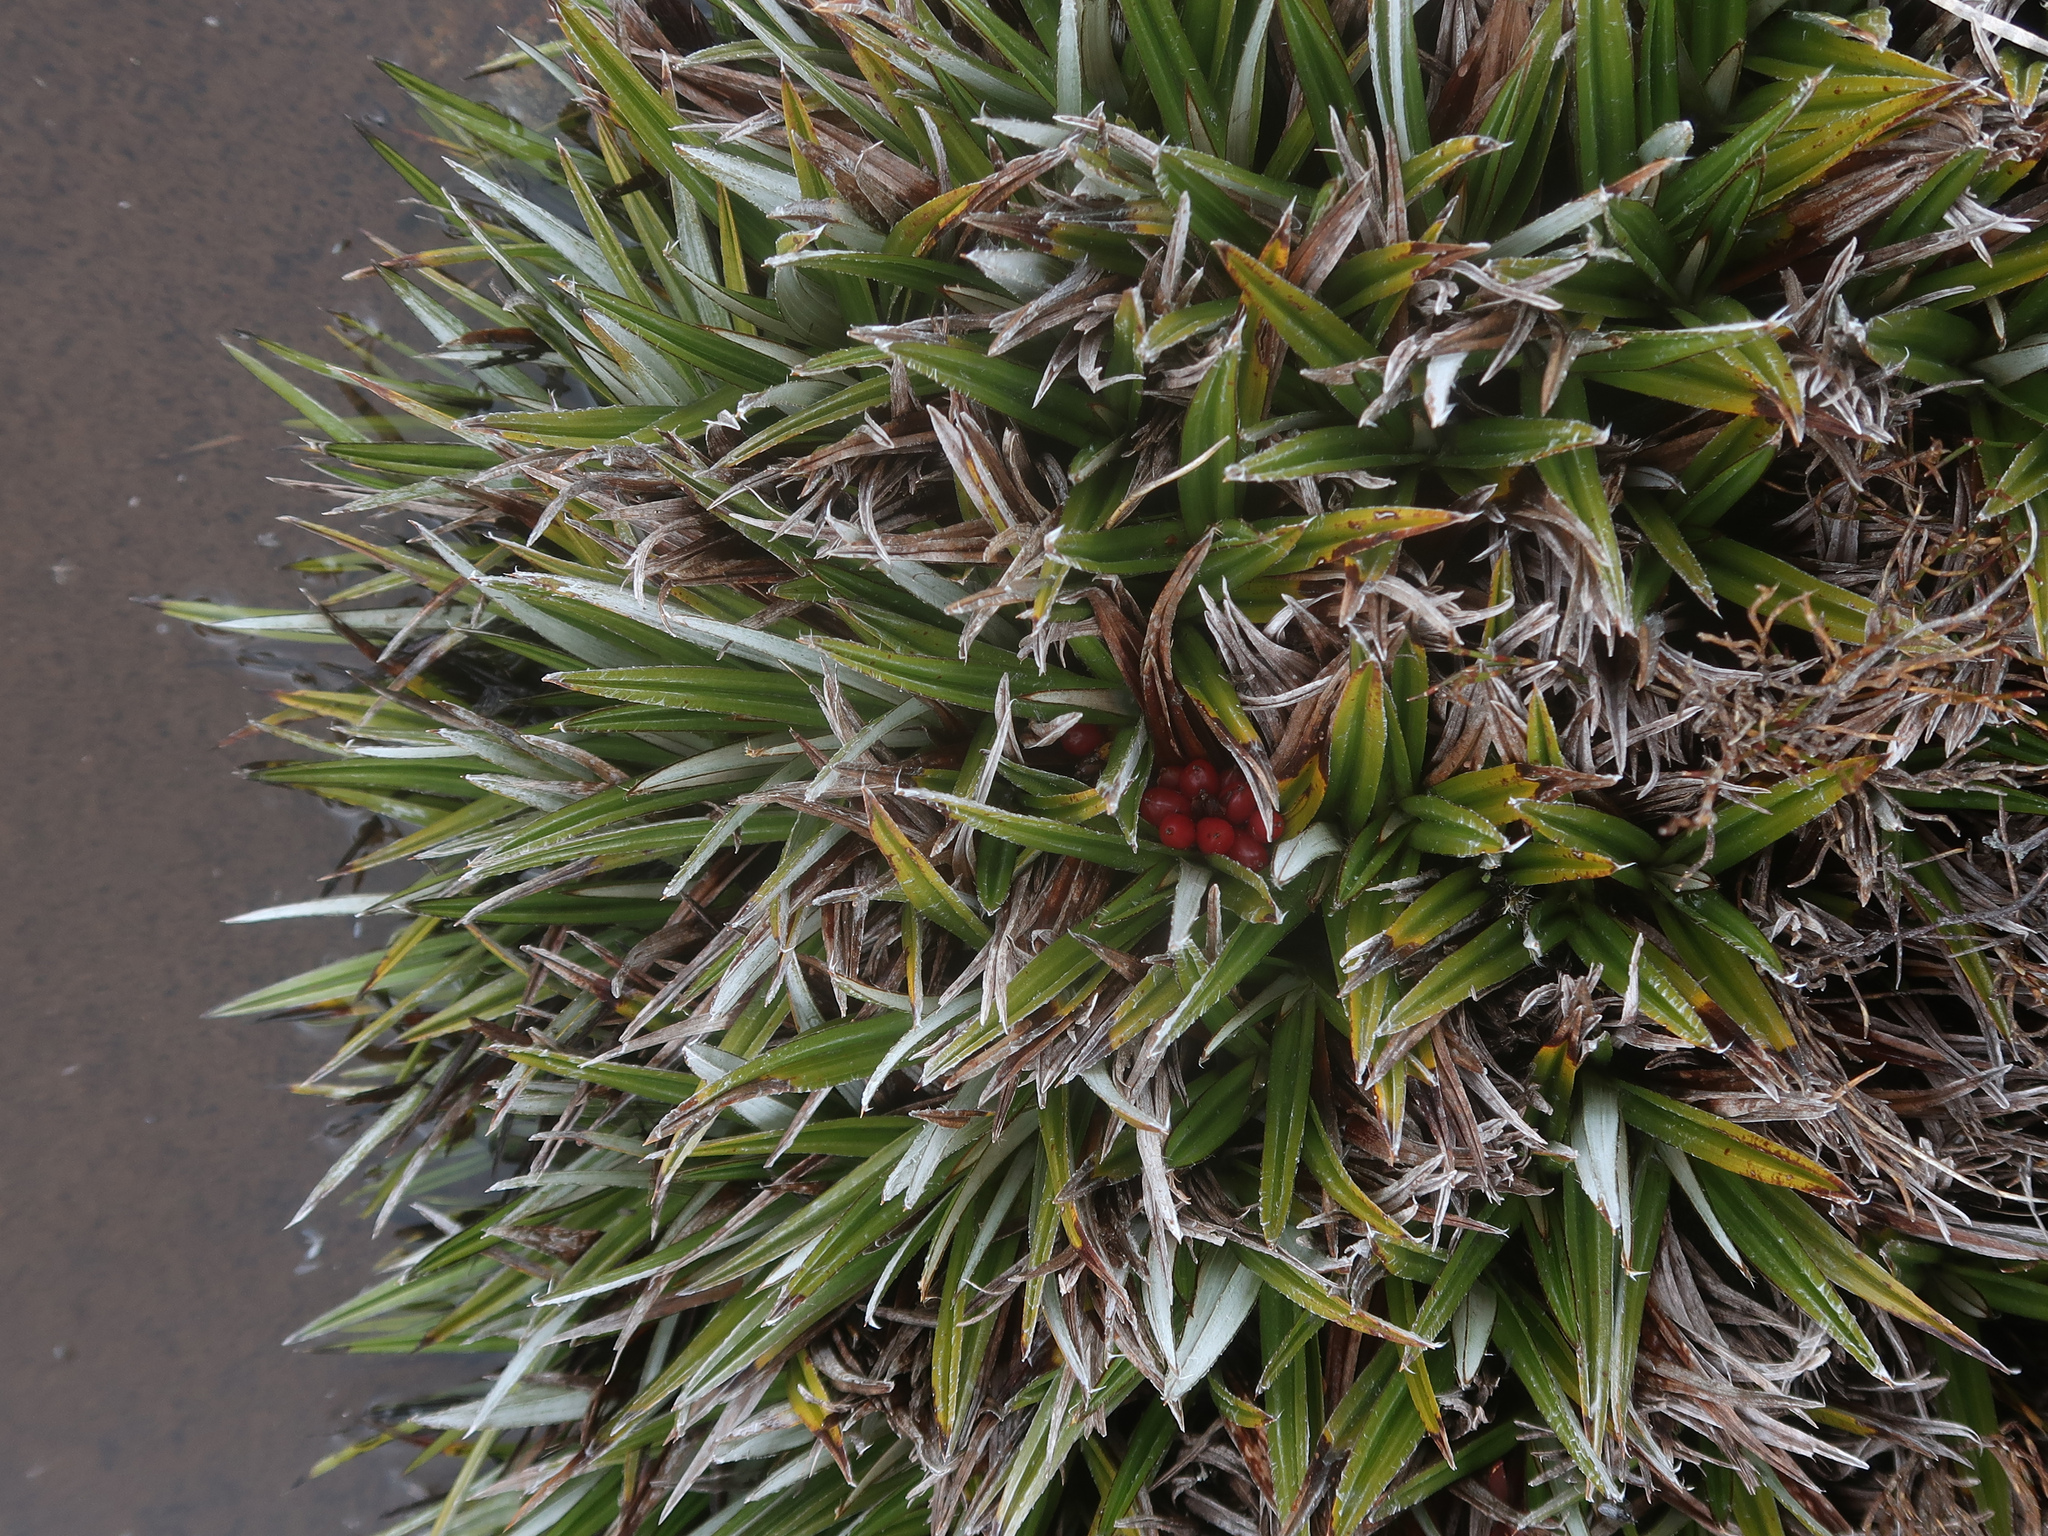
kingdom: Plantae
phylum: Tracheophyta
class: Liliopsida
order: Asparagales
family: Asteliaceae
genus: Astelia
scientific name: Astelia alpina
